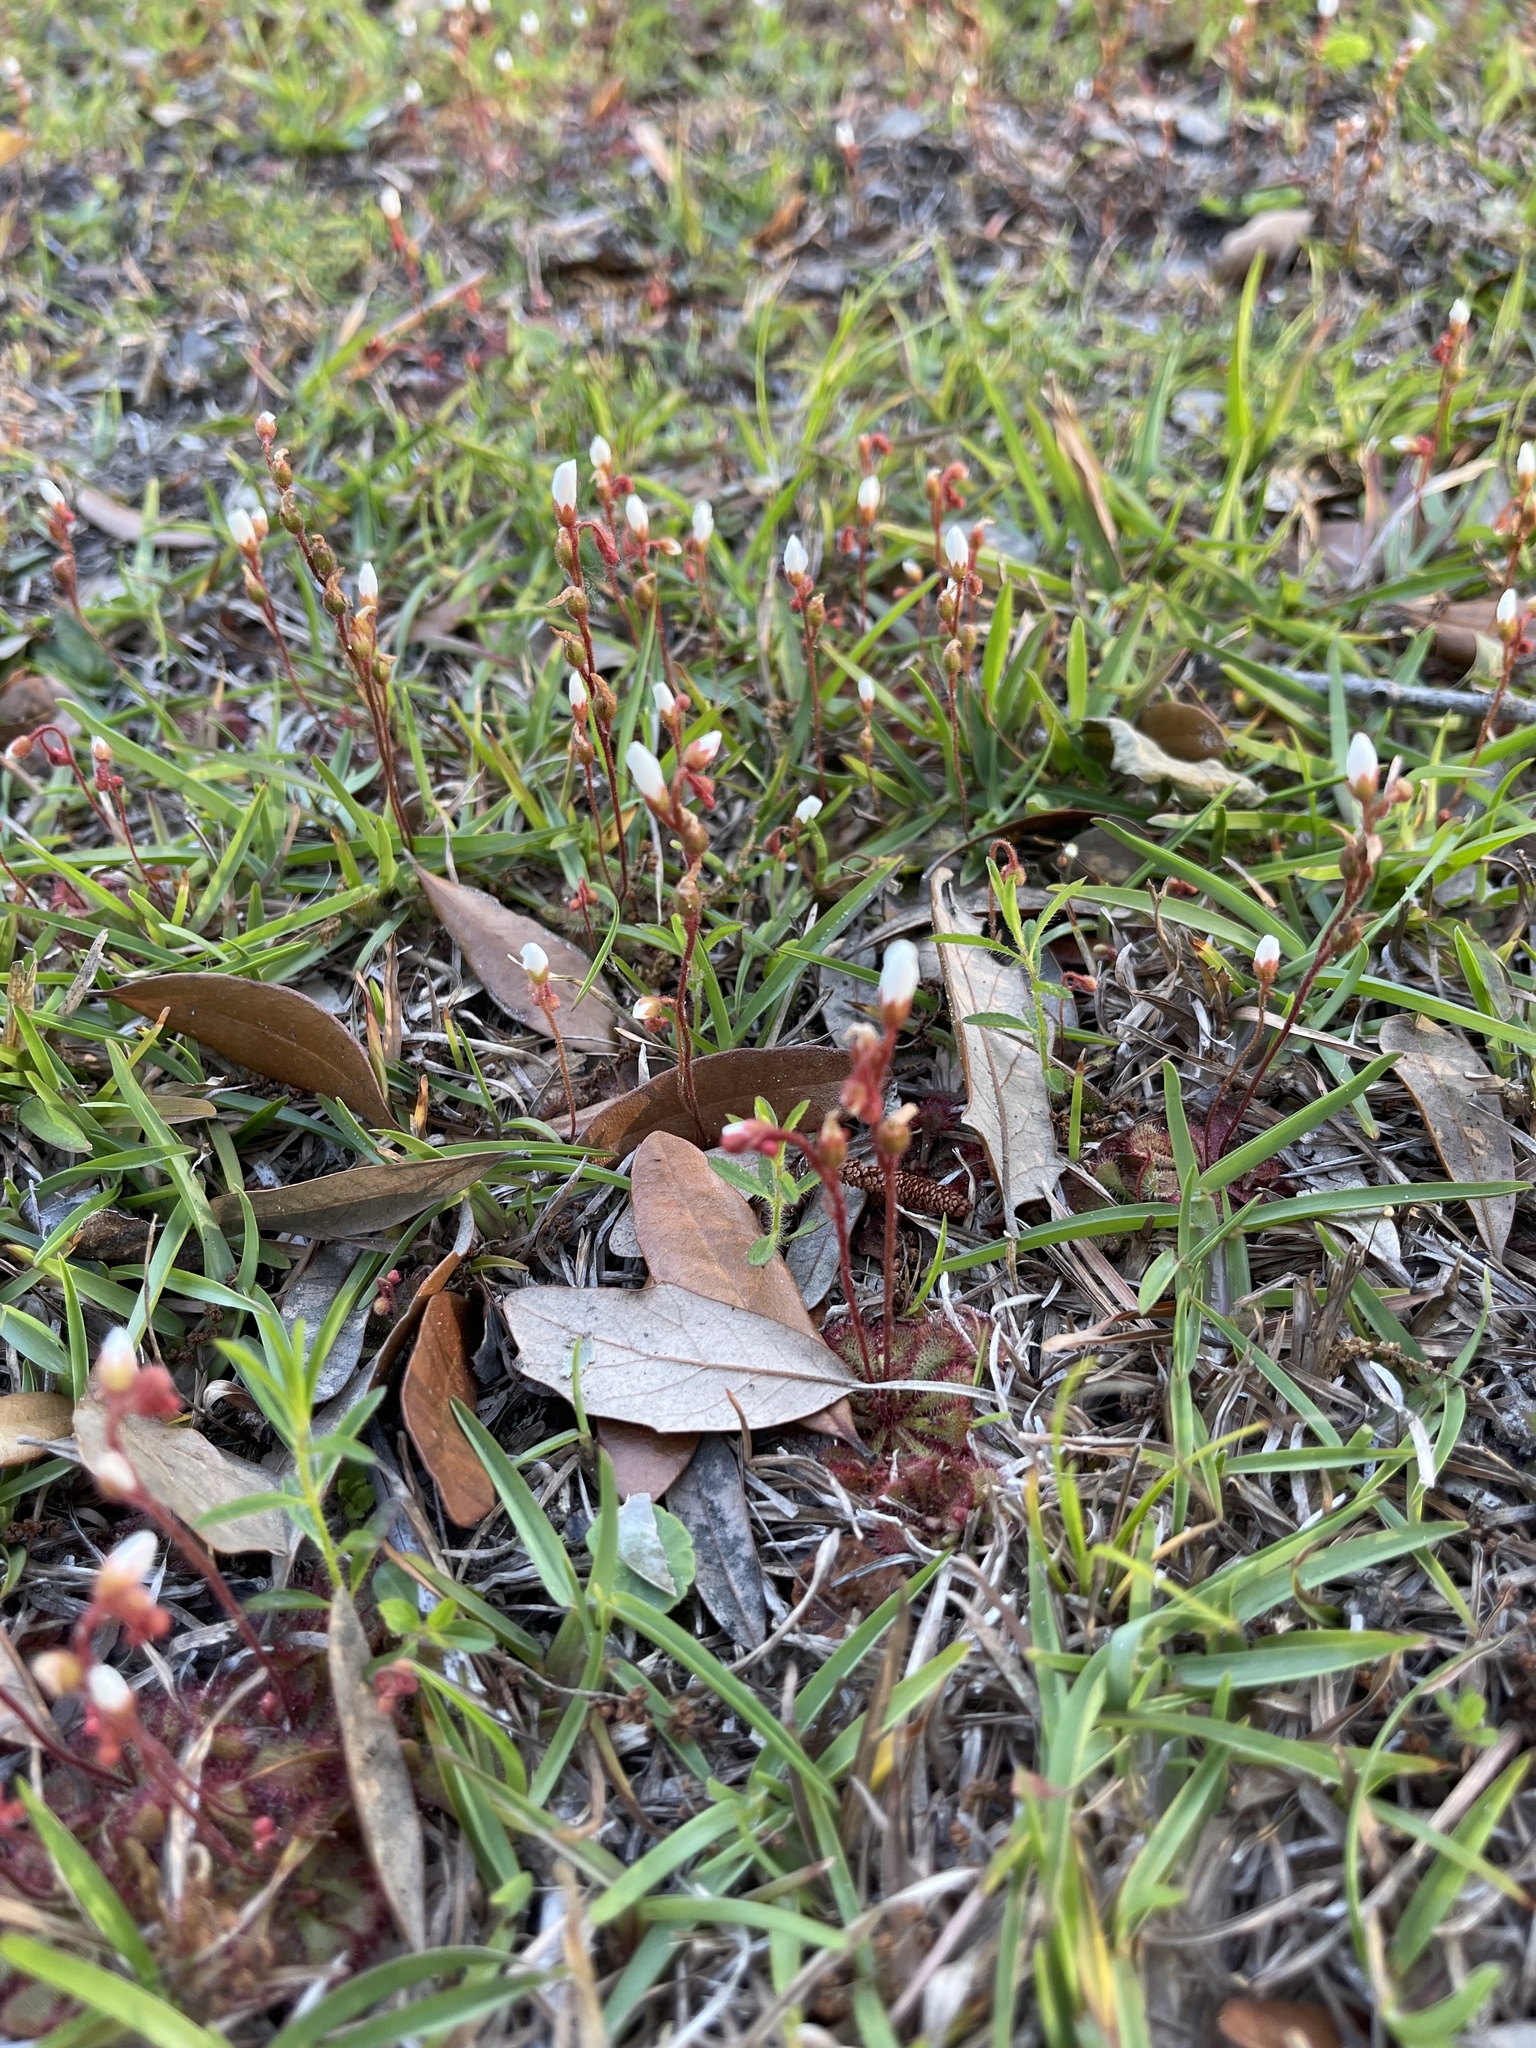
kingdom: Plantae
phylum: Tracheophyta
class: Magnoliopsida
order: Caryophyllales
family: Droseraceae
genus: Drosera
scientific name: Drosera brevifolia
